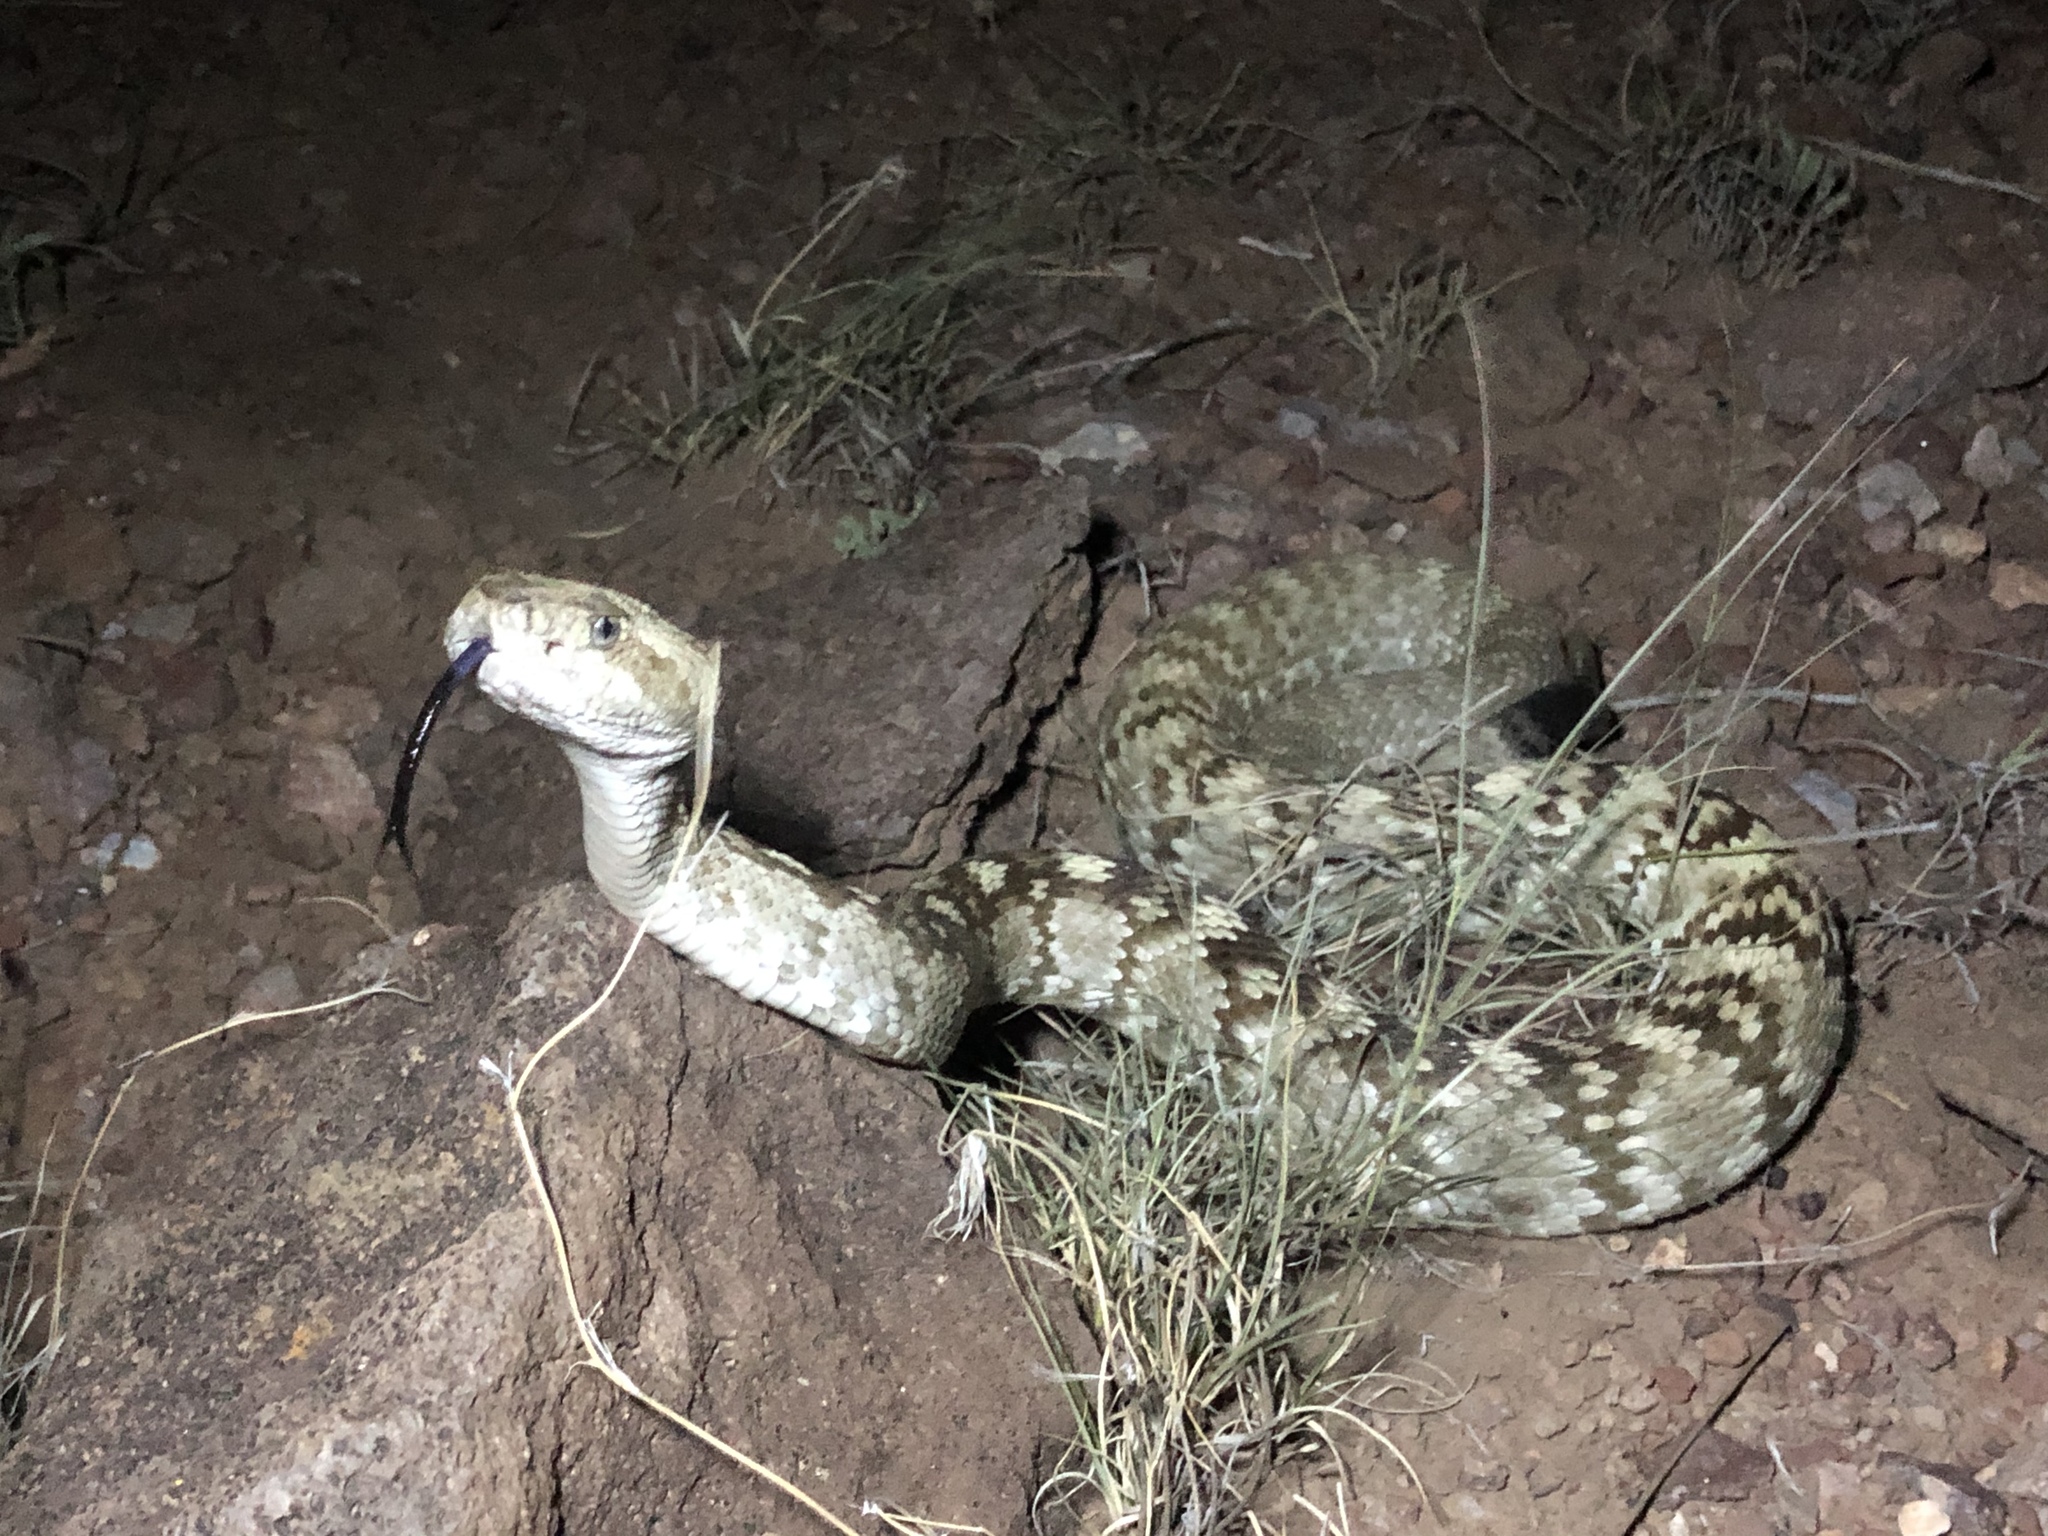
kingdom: Animalia
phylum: Chordata
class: Squamata
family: Viperidae
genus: Crotalus
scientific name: Crotalus ornatus
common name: Black-tailed rattlesnake
